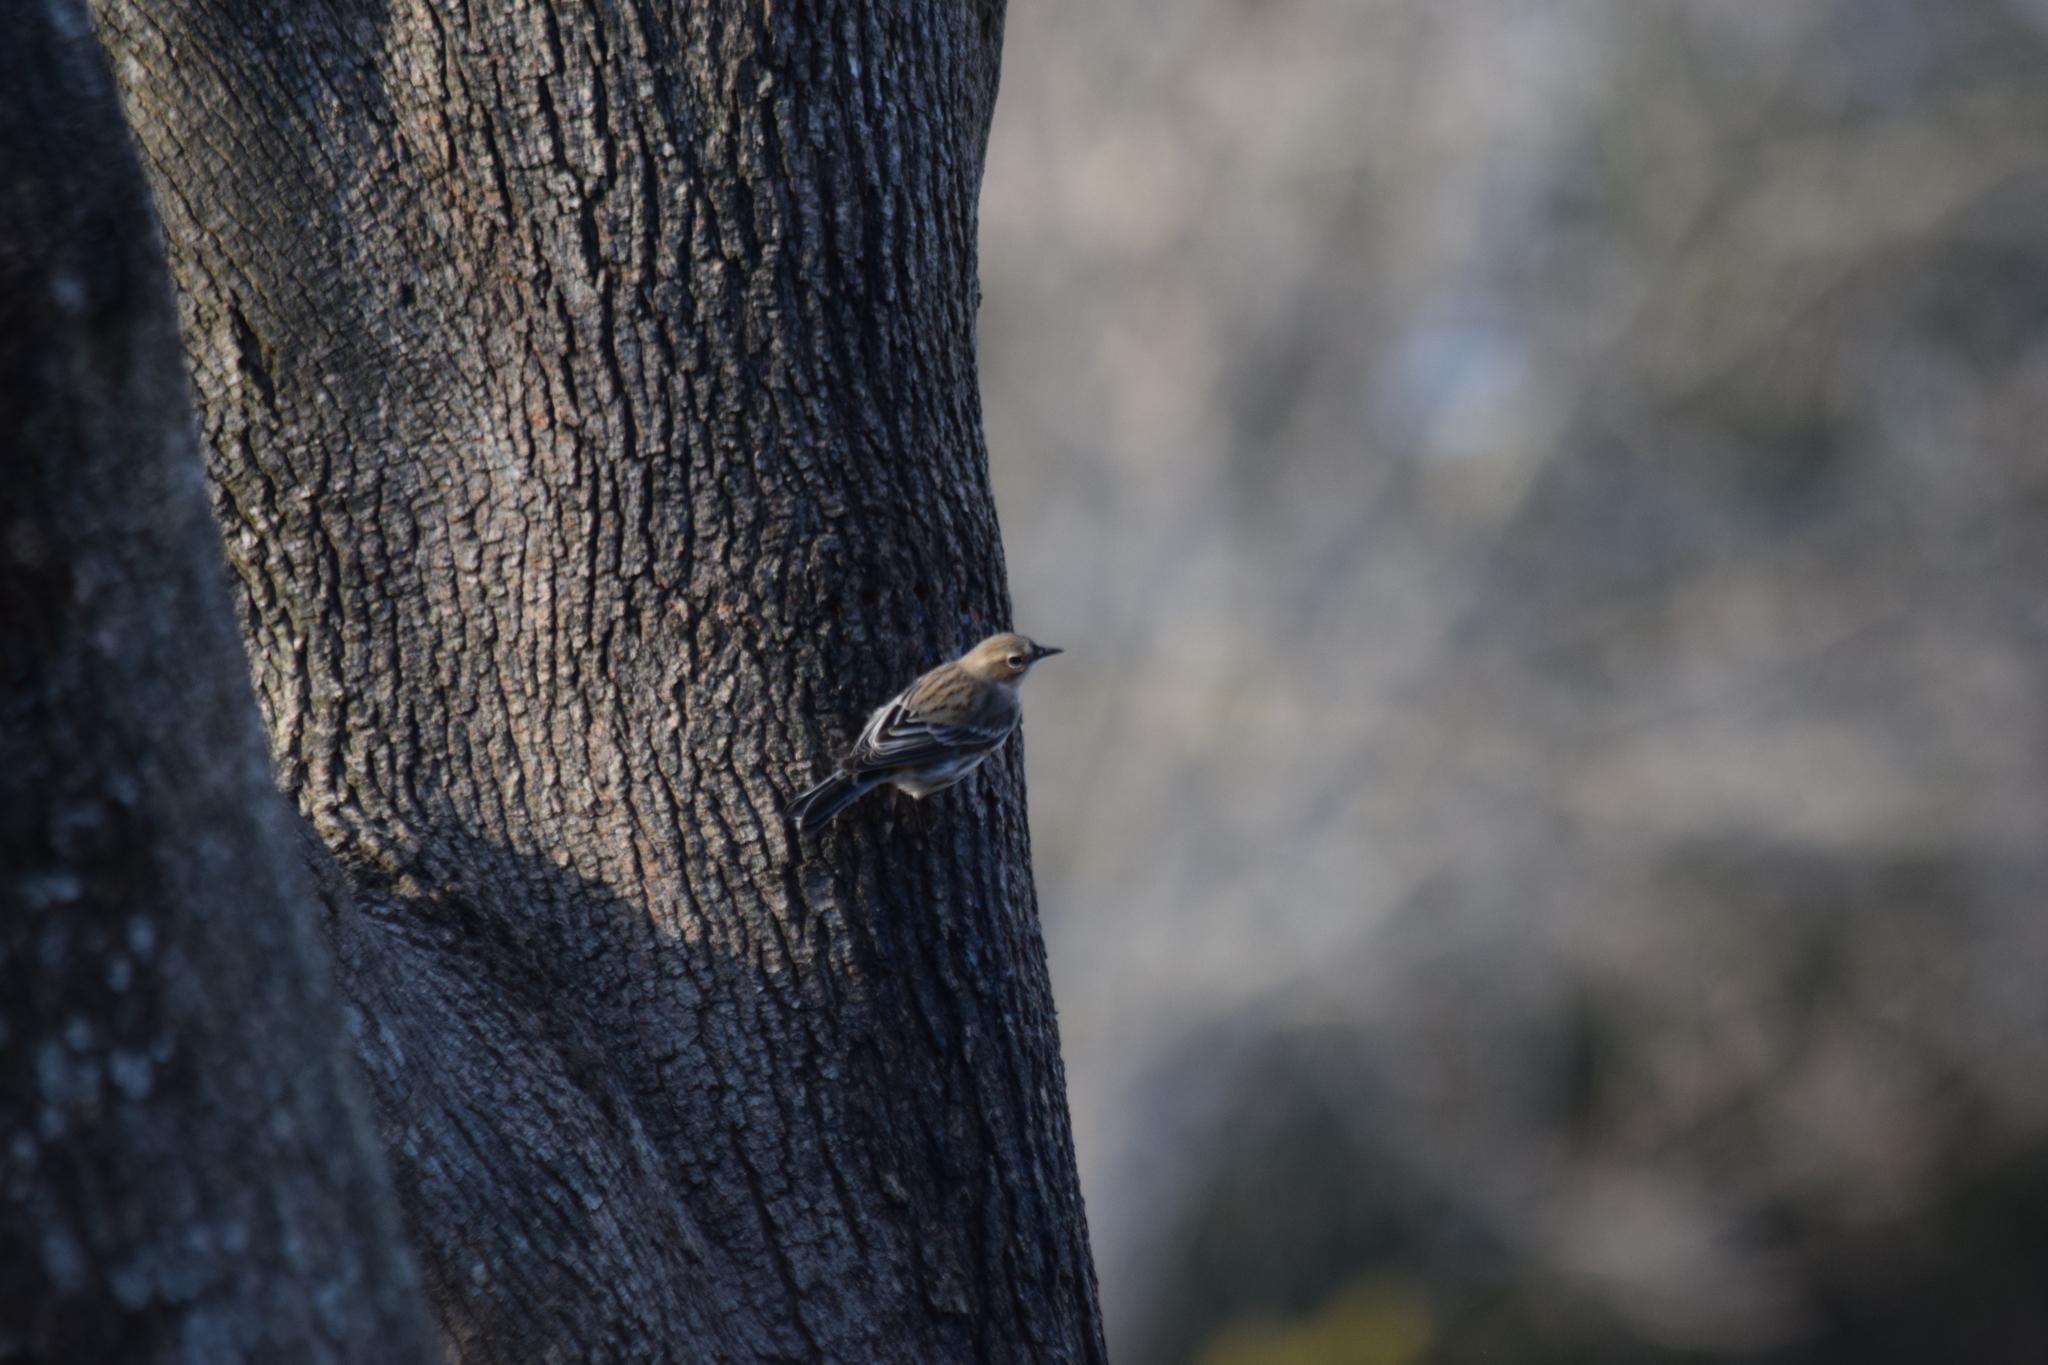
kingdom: Animalia
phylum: Chordata
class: Aves
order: Passeriformes
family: Parulidae
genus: Setophaga
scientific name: Setophaga coronata
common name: Myrtle warbler
